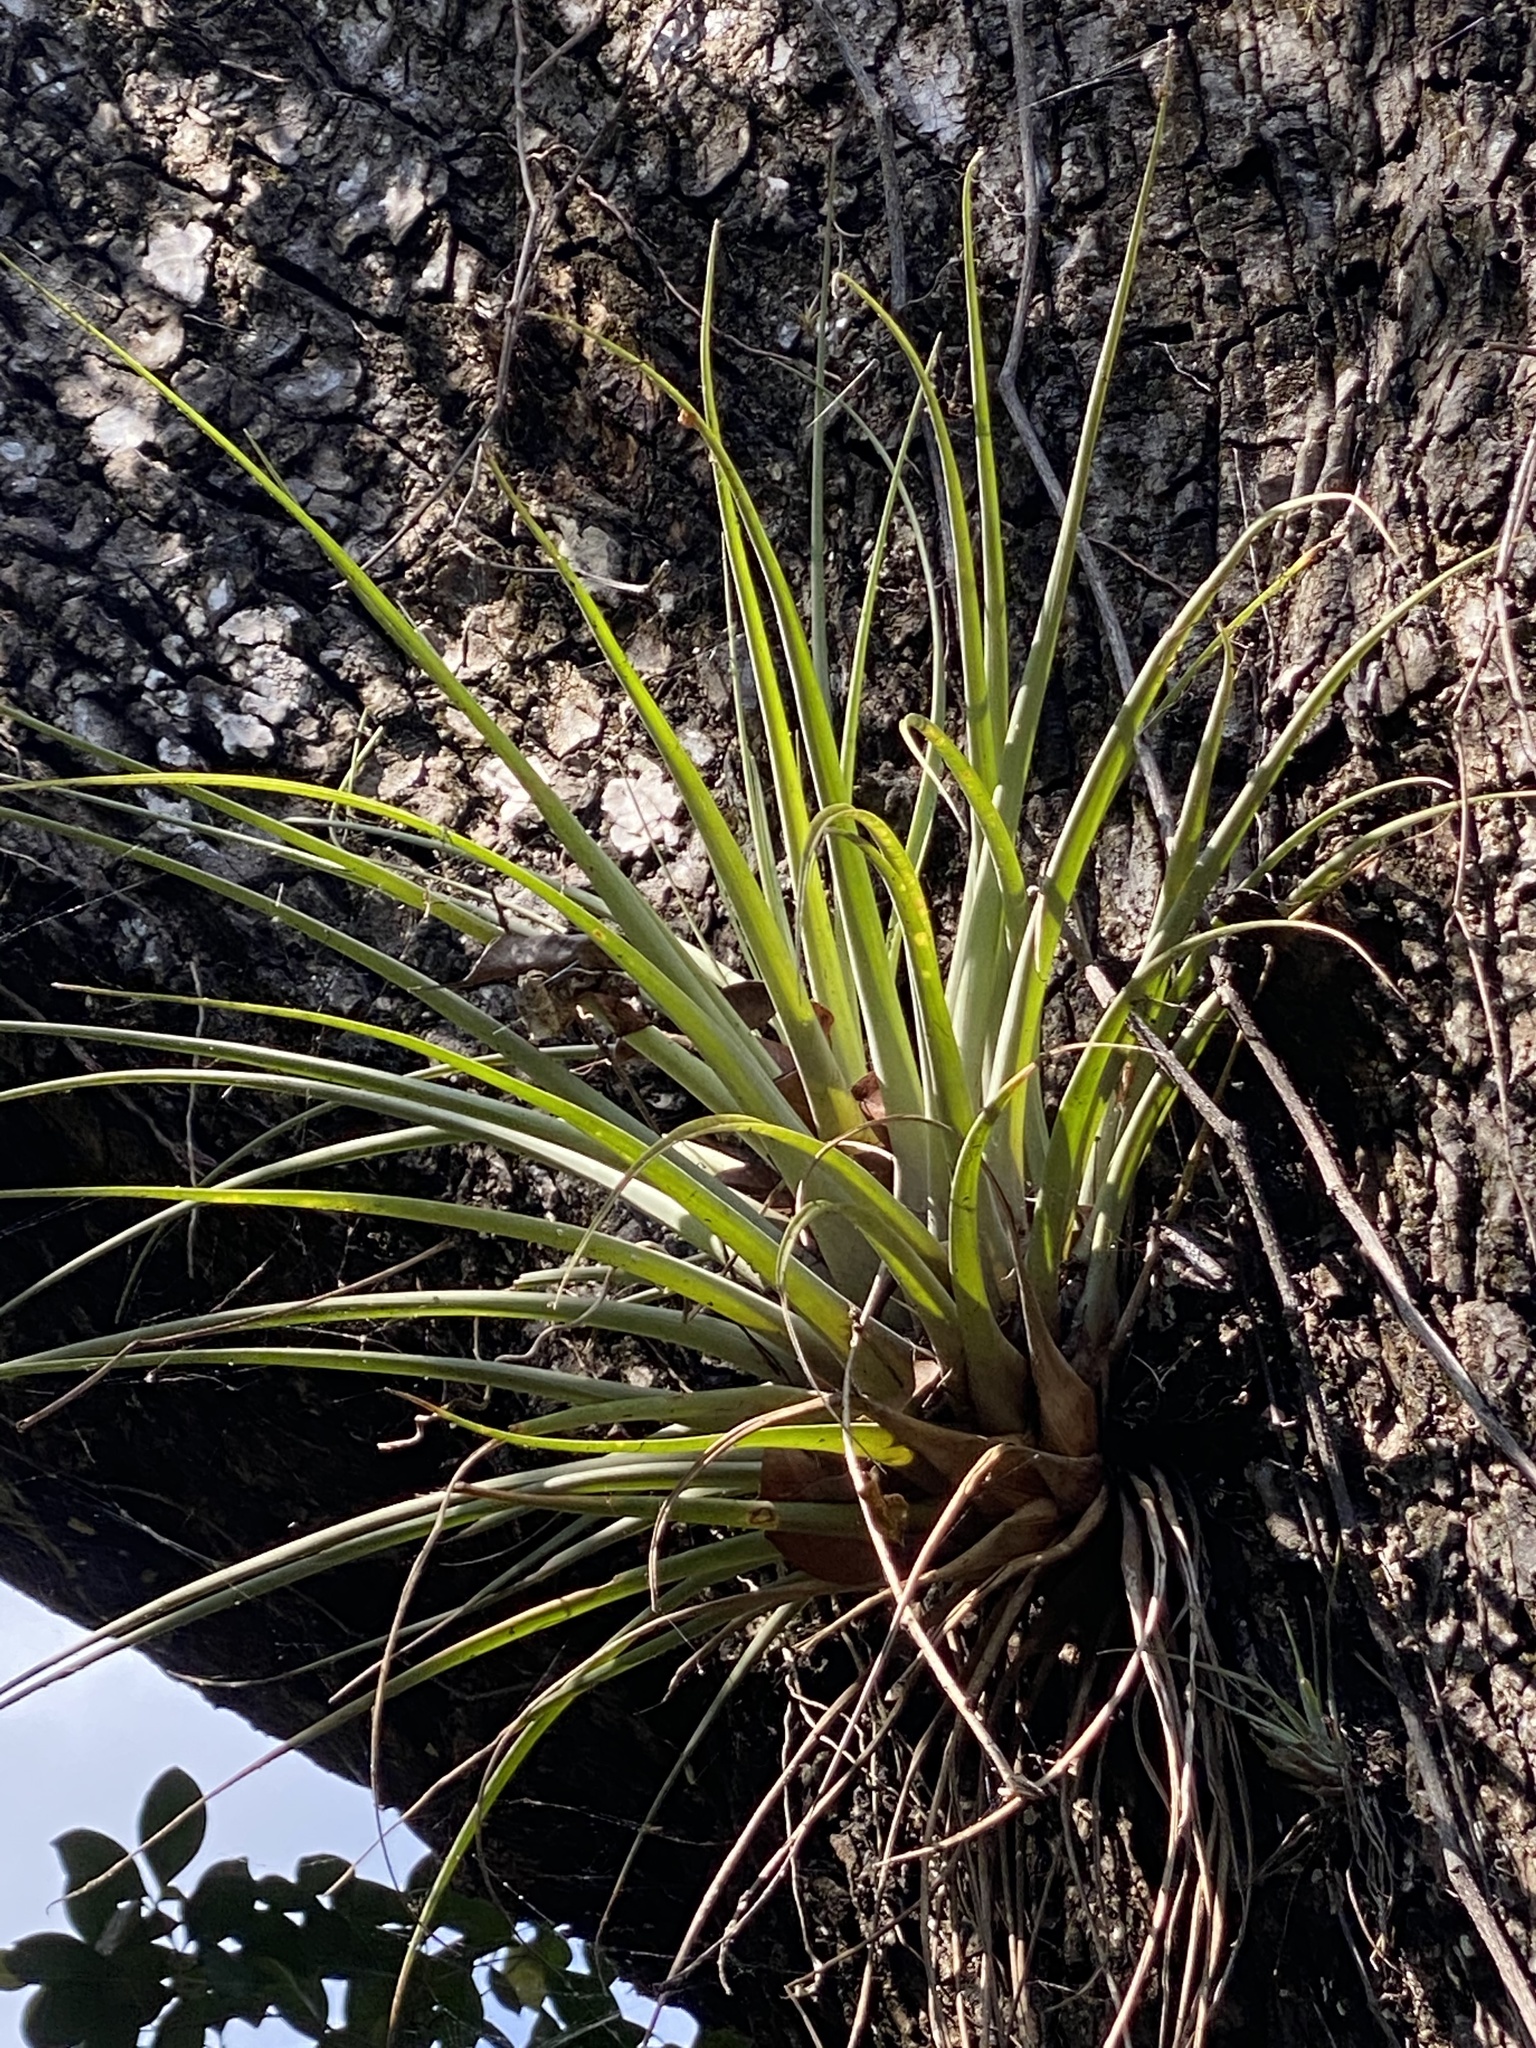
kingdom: Plantae
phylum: Tracheophyta
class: Liliopsida
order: Poales
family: Bromeliaceae
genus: Tillandsia
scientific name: Tillandsia fasciculata
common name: Giant airplant
